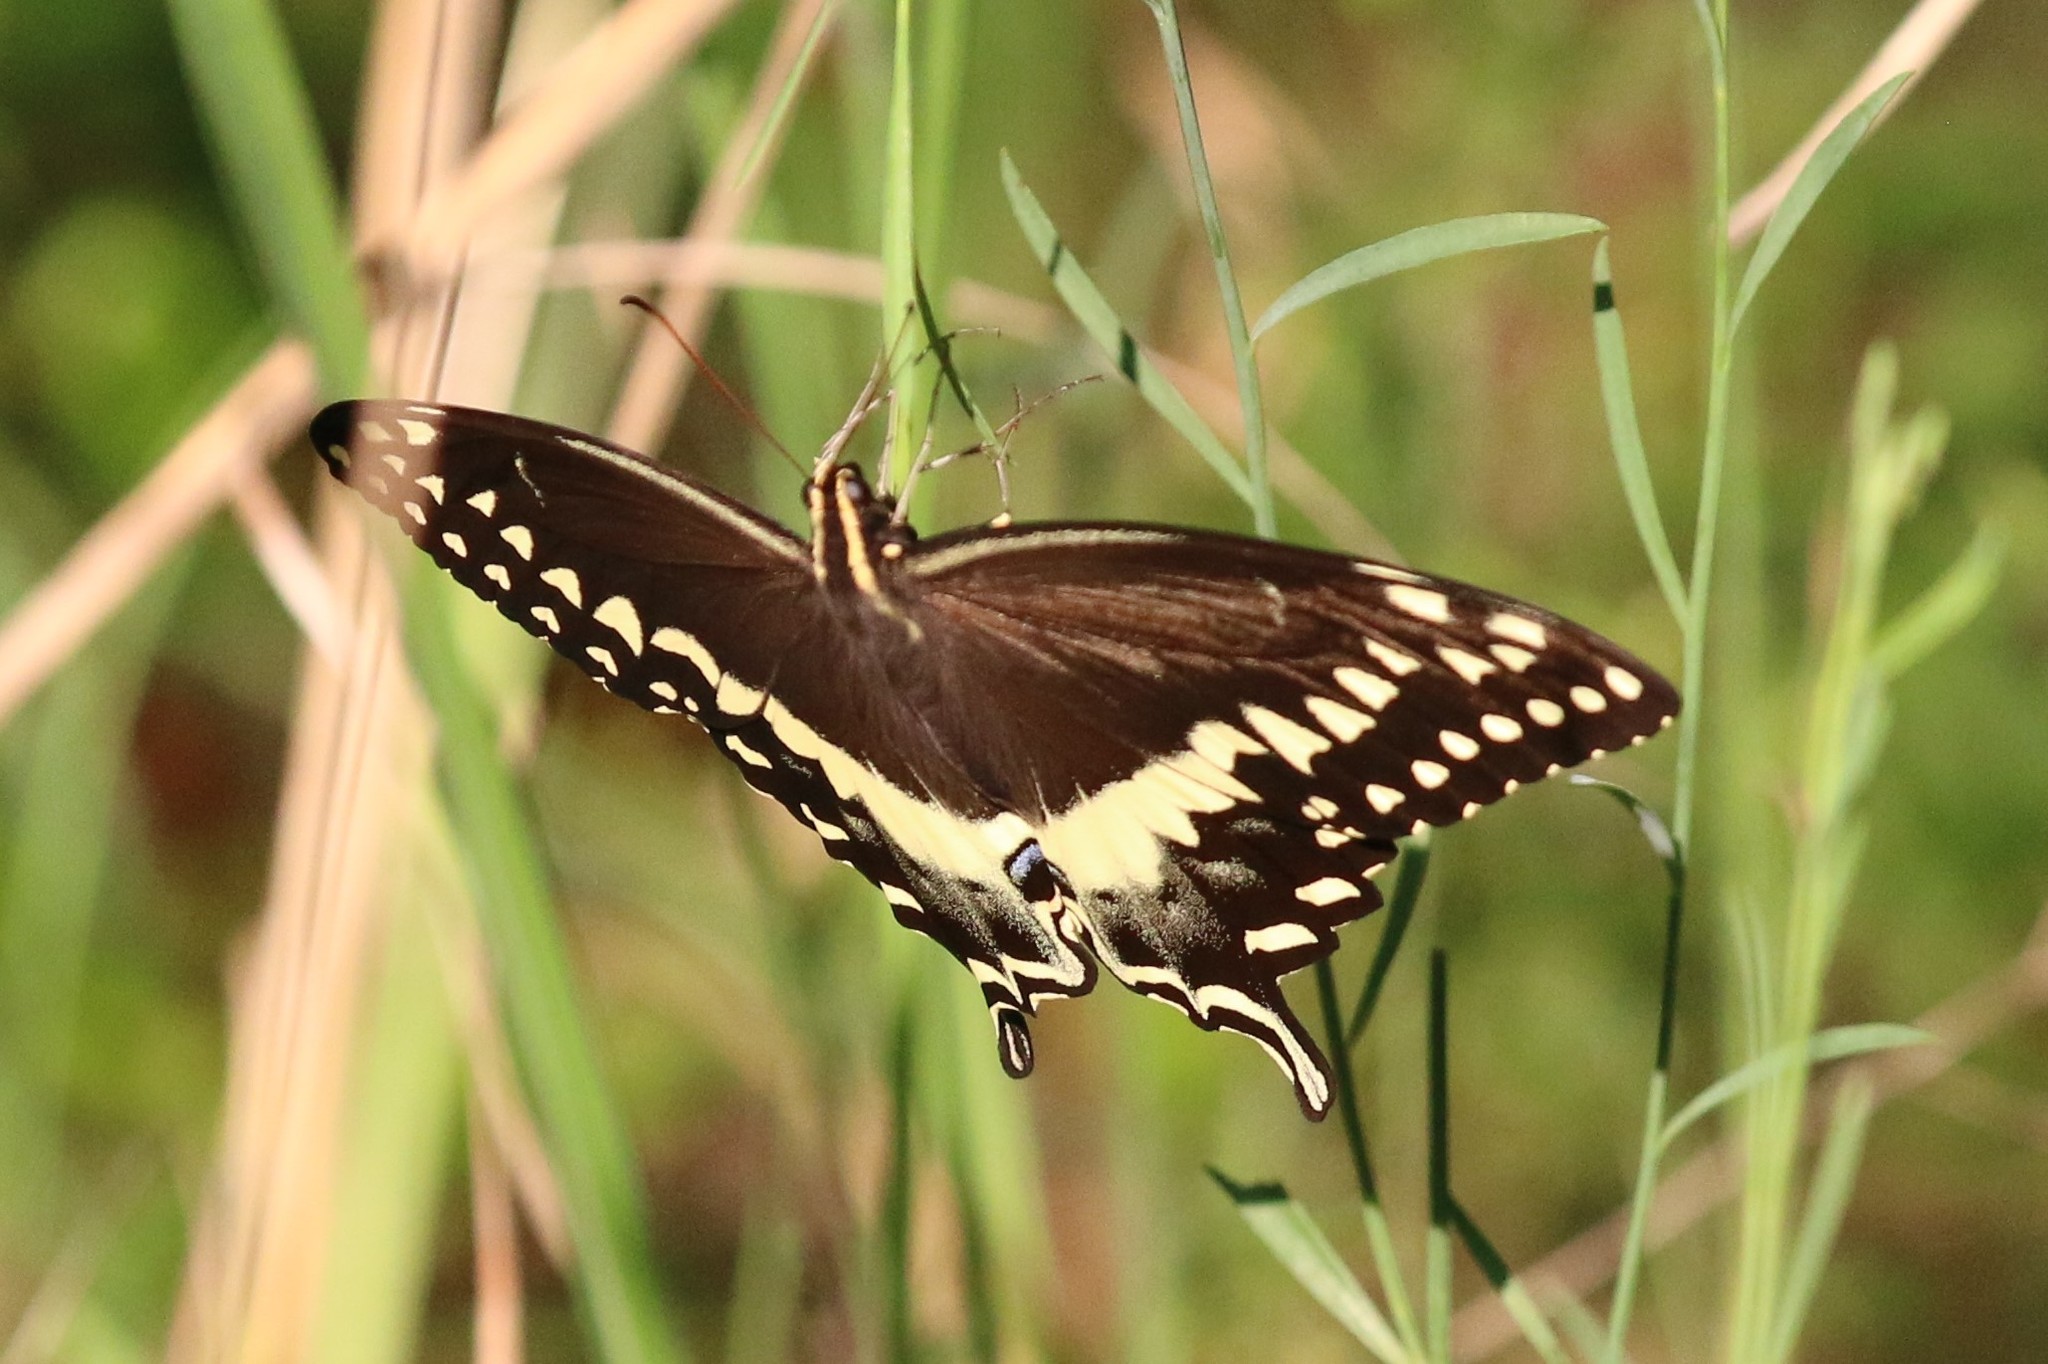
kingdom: Animalia
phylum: Arthropoda
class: Insecta
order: Lepidoptera
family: Papilionidae
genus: Papilio
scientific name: Papilio palamedes
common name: Palamedes swallowtail
